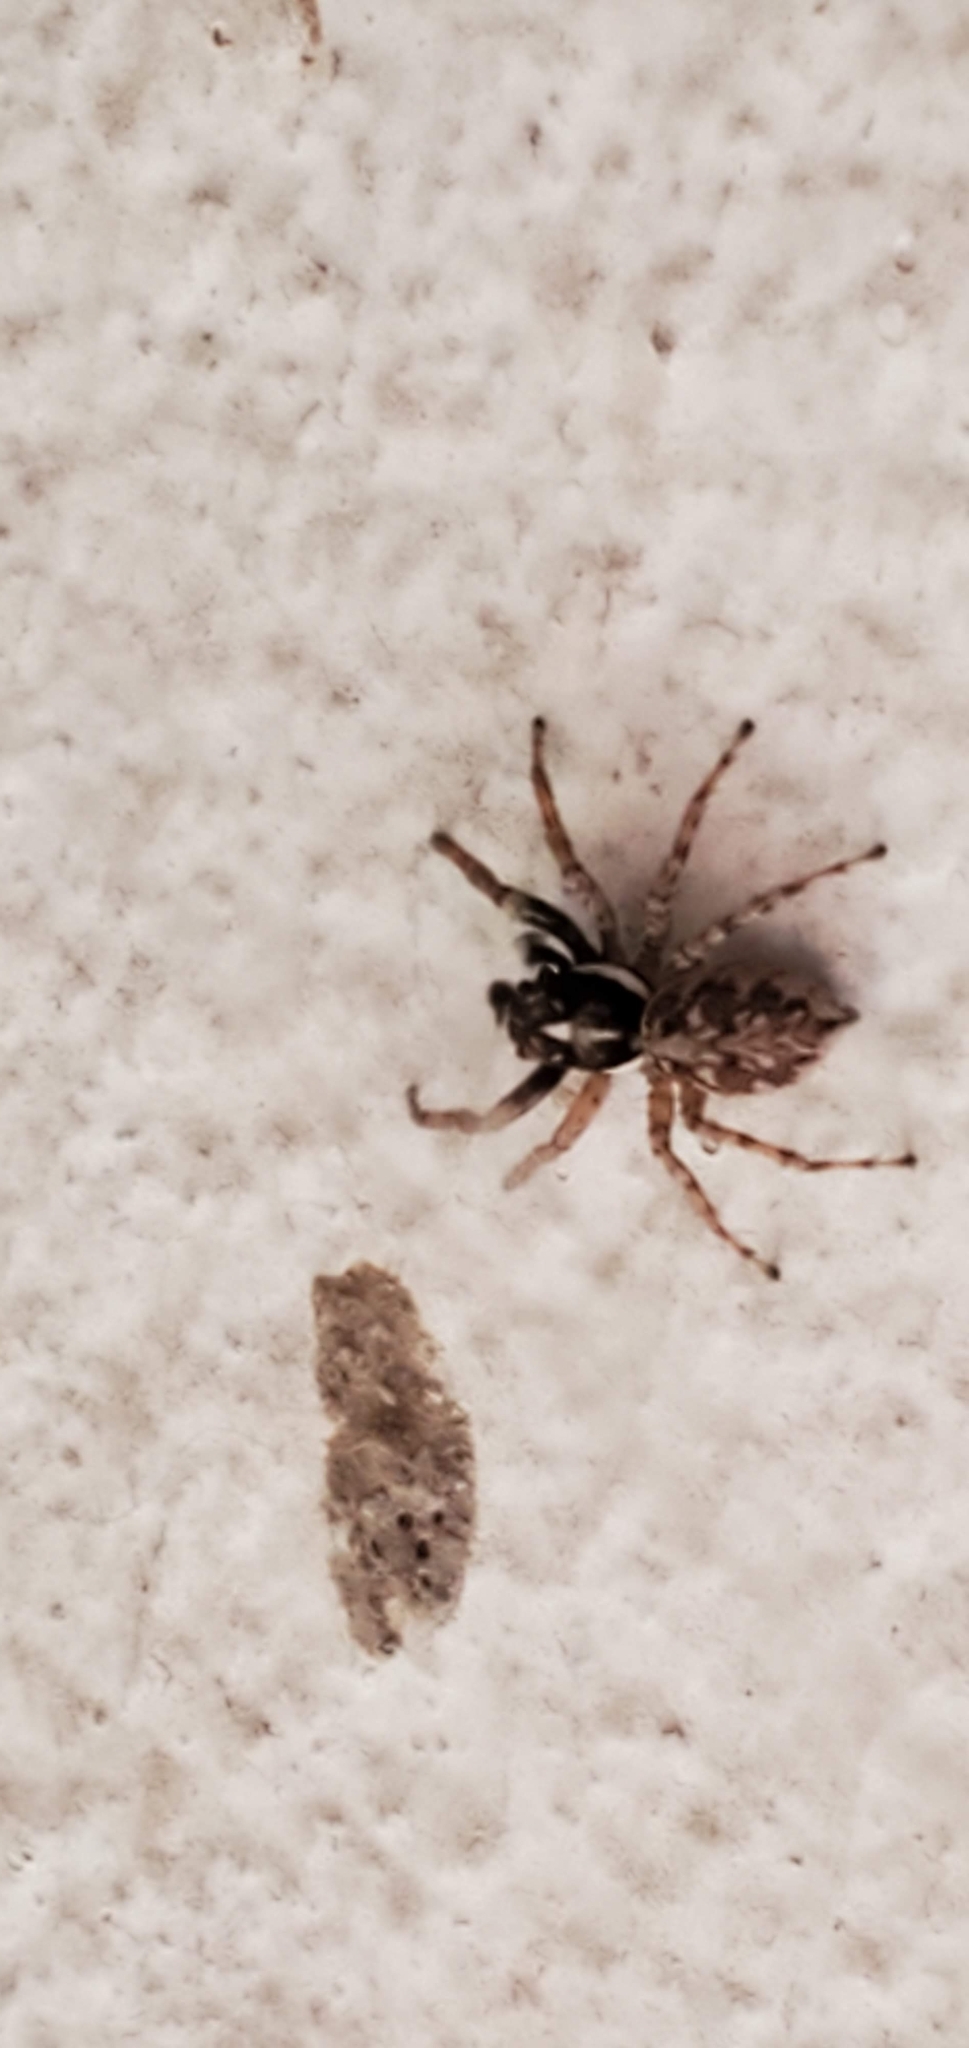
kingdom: Animalia
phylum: Arthropoda
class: Arachnida
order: Araneae
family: Salticidae
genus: Menemerus
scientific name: Menemerus semilimbatus
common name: Jumping spider
